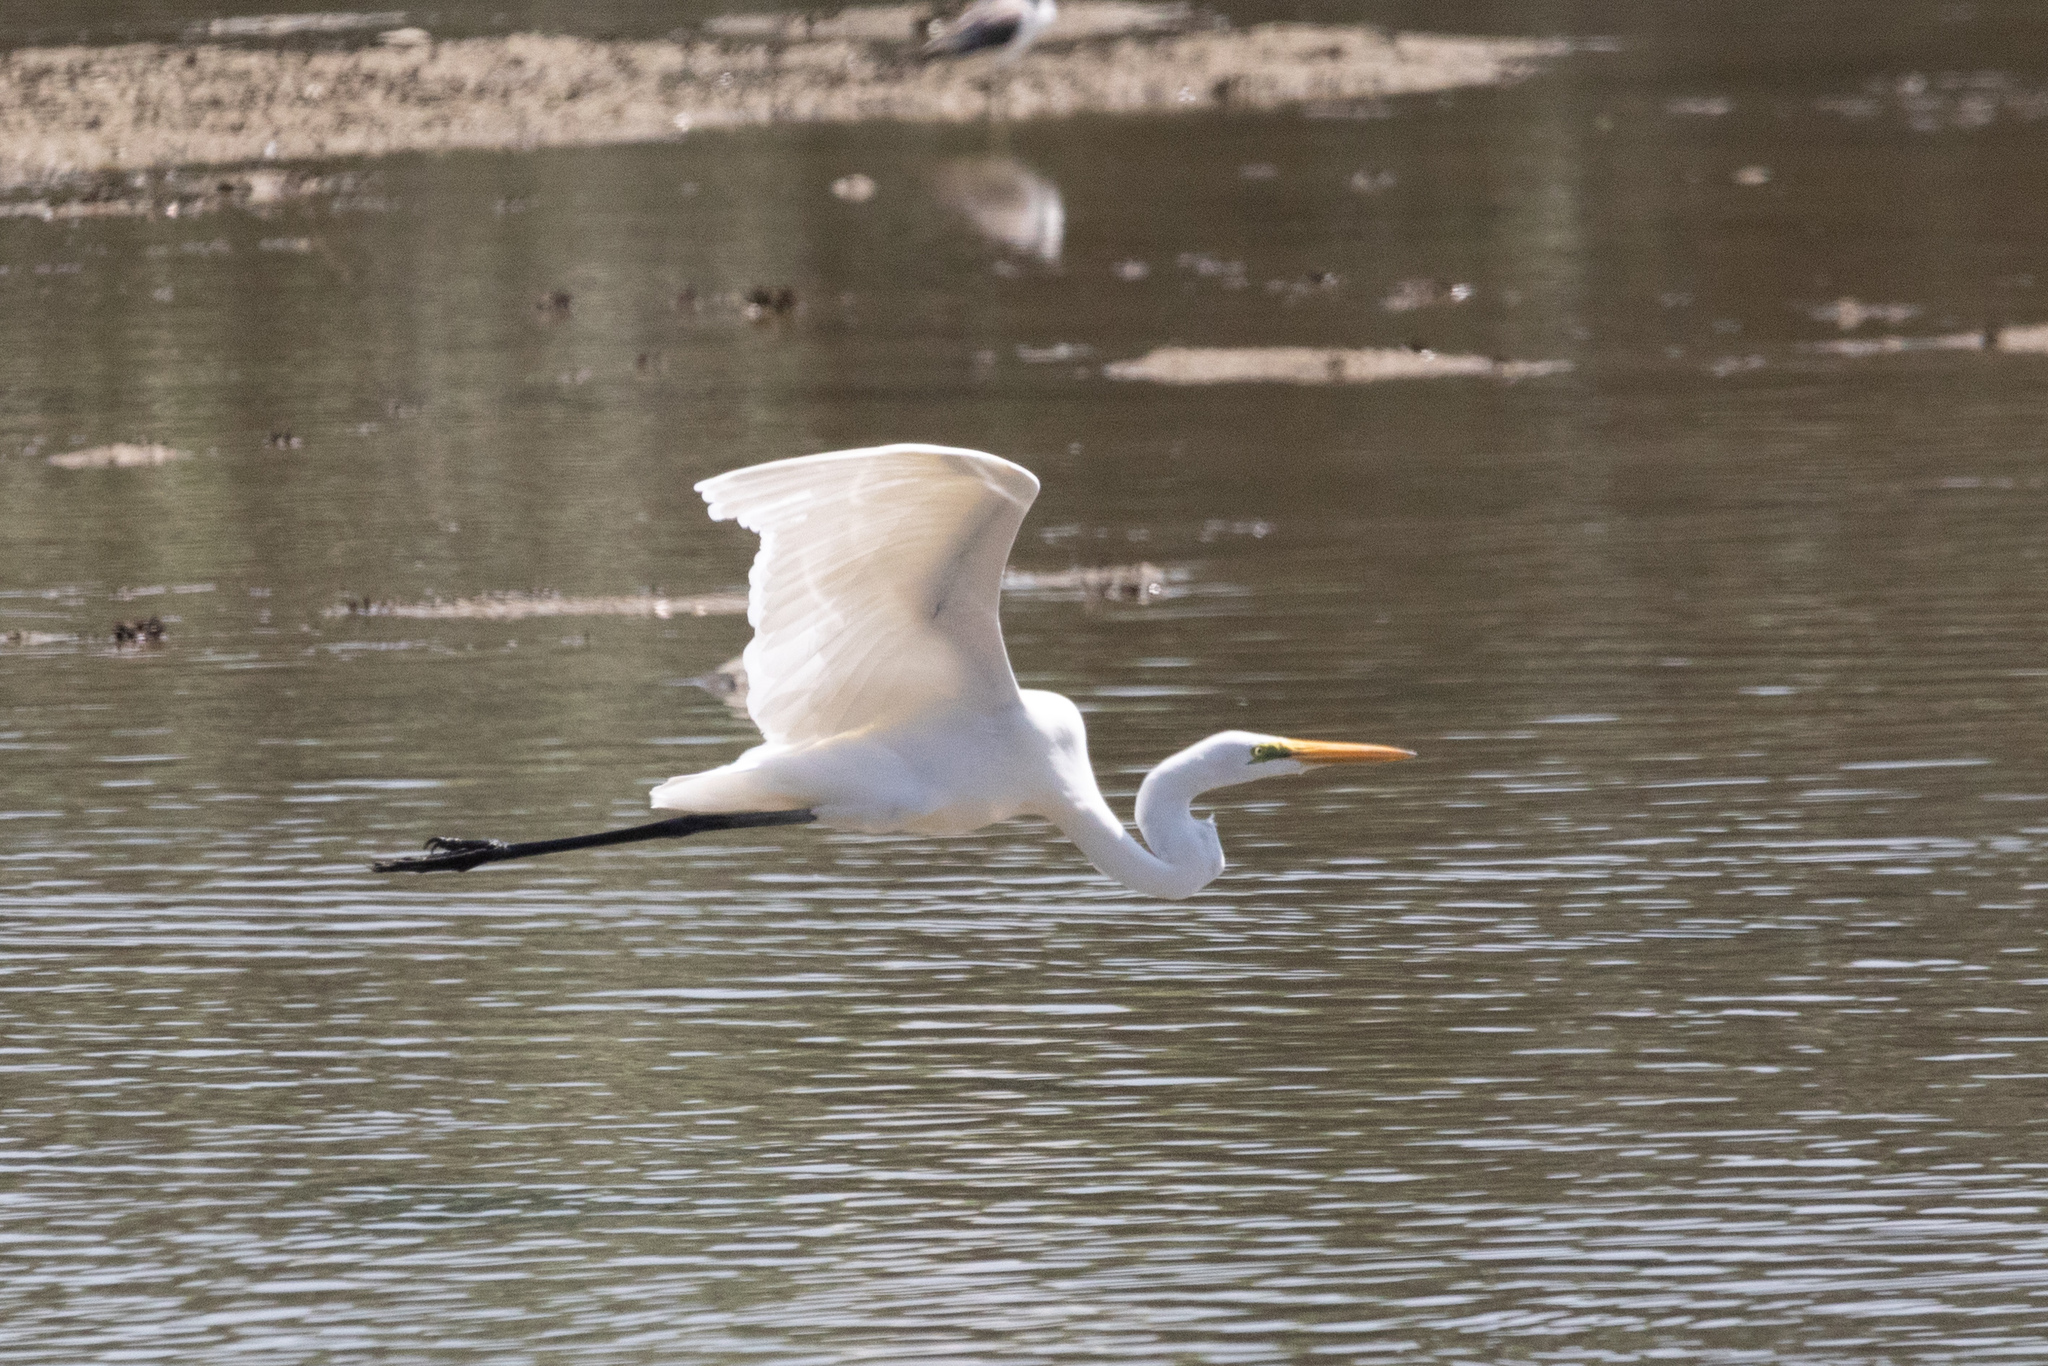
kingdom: Animalia
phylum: Chordata
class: Aves
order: Pelecaniformes
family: Ardeidae
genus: Ardea
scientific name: Ardea alba
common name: Great egret
